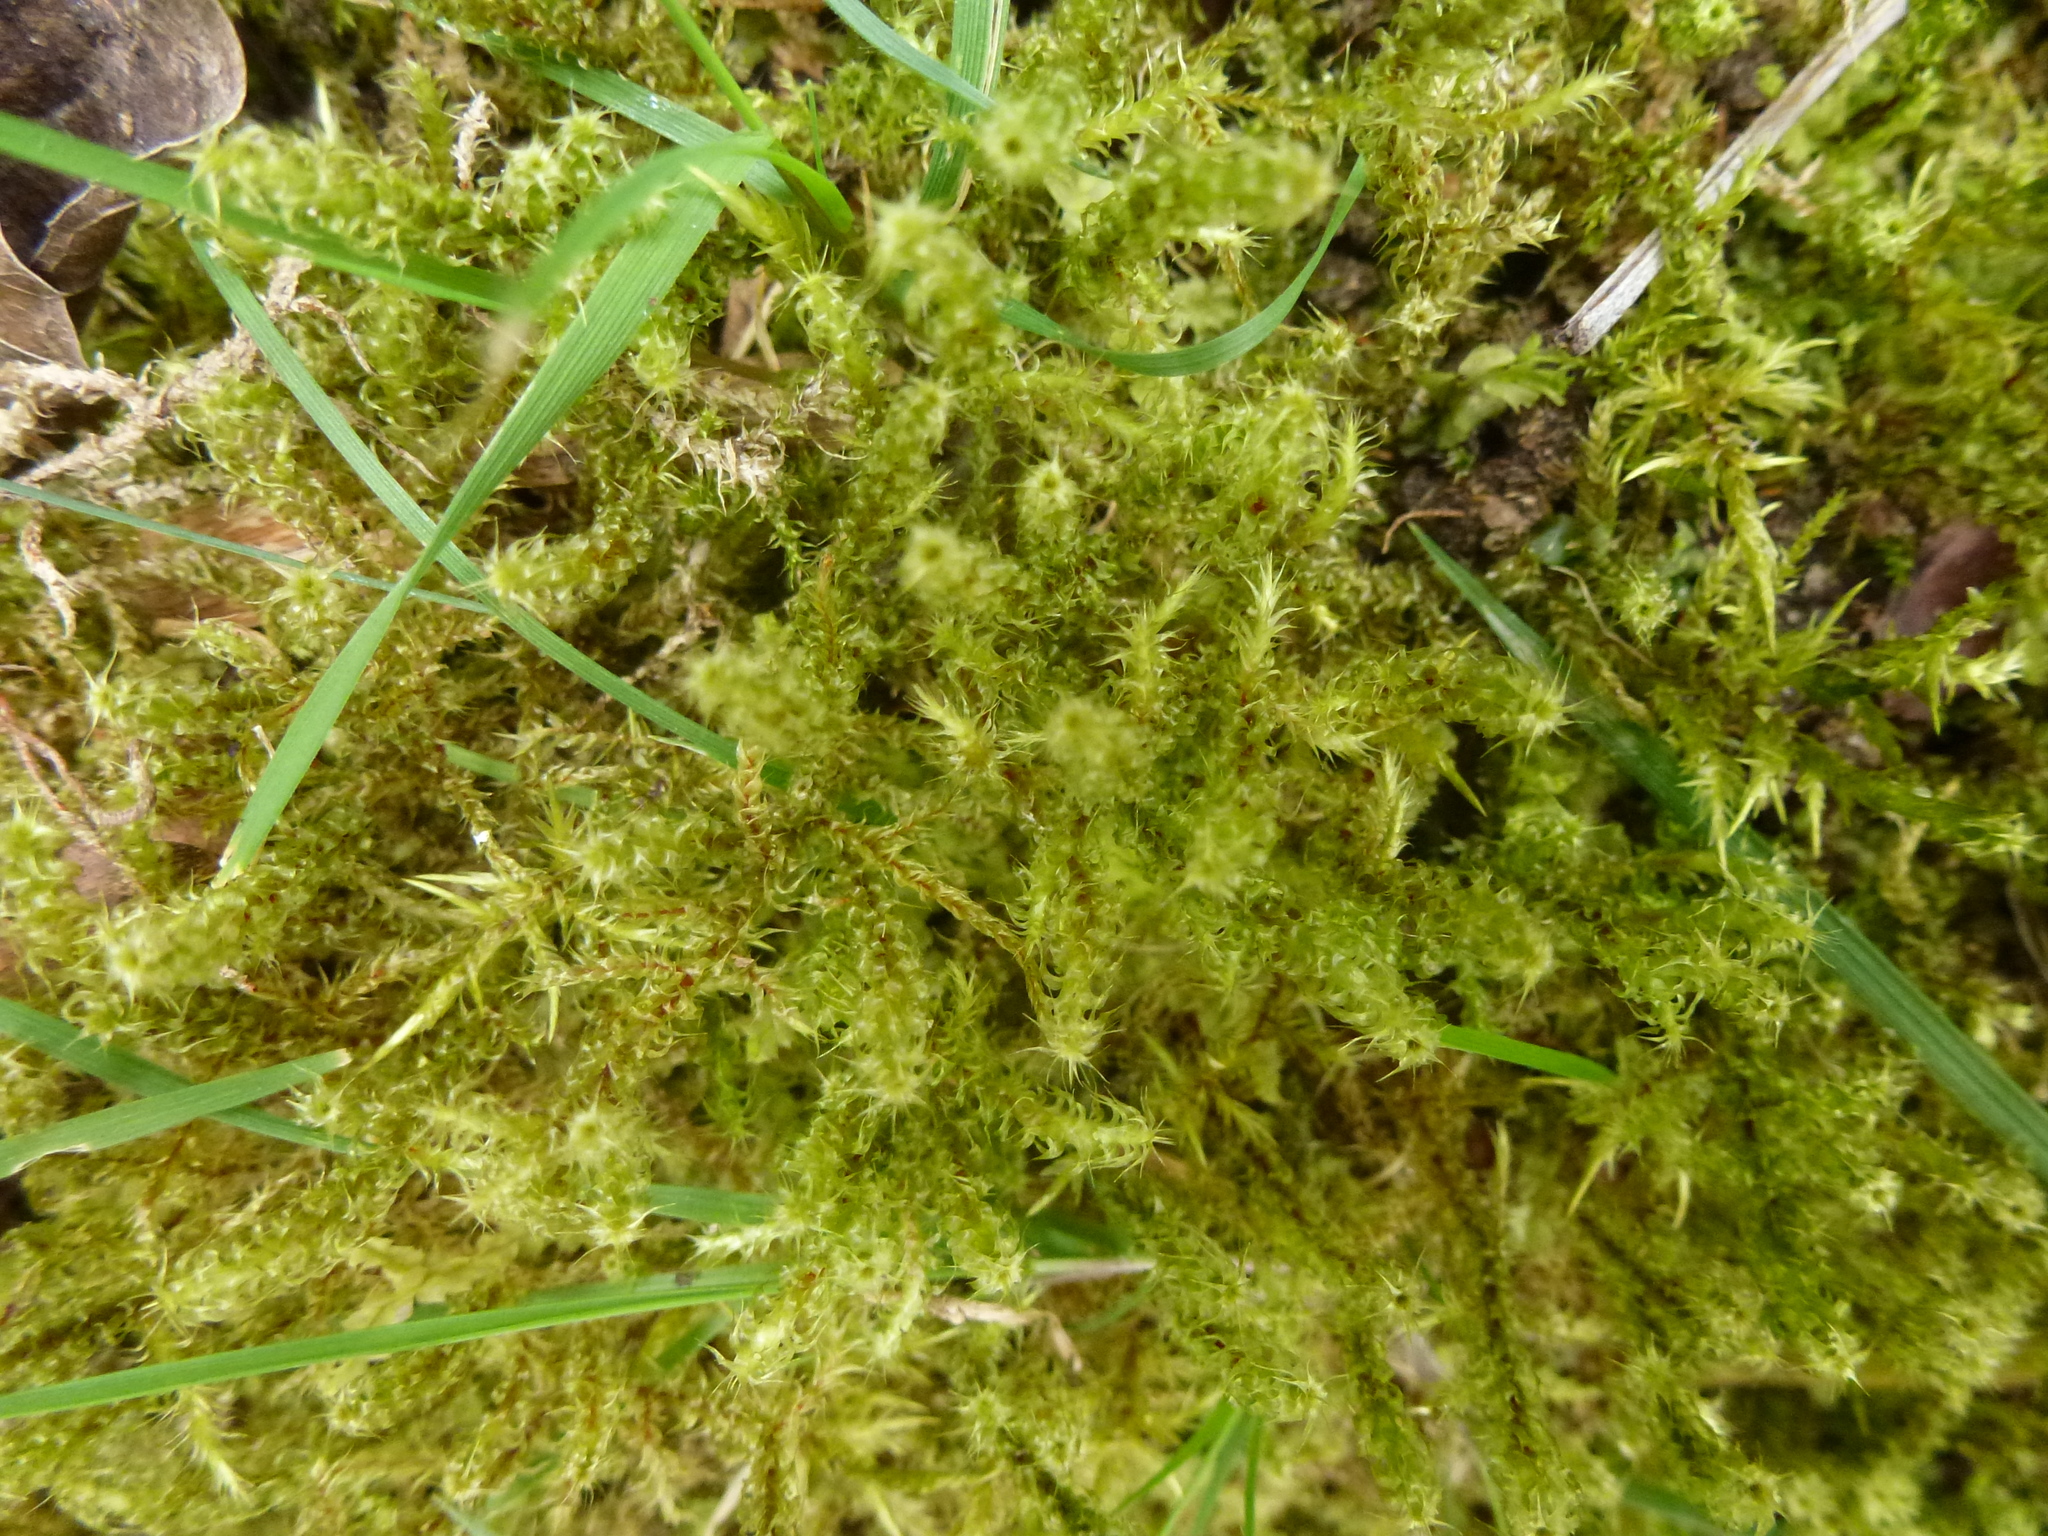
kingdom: Plantae
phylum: Bryophyta
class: Bryopsida
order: Hypnales
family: Hylocomiaceae
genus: Rhytidiadelphus
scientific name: Rhytidiadelphus squarrosus
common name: Springy turf-moss
